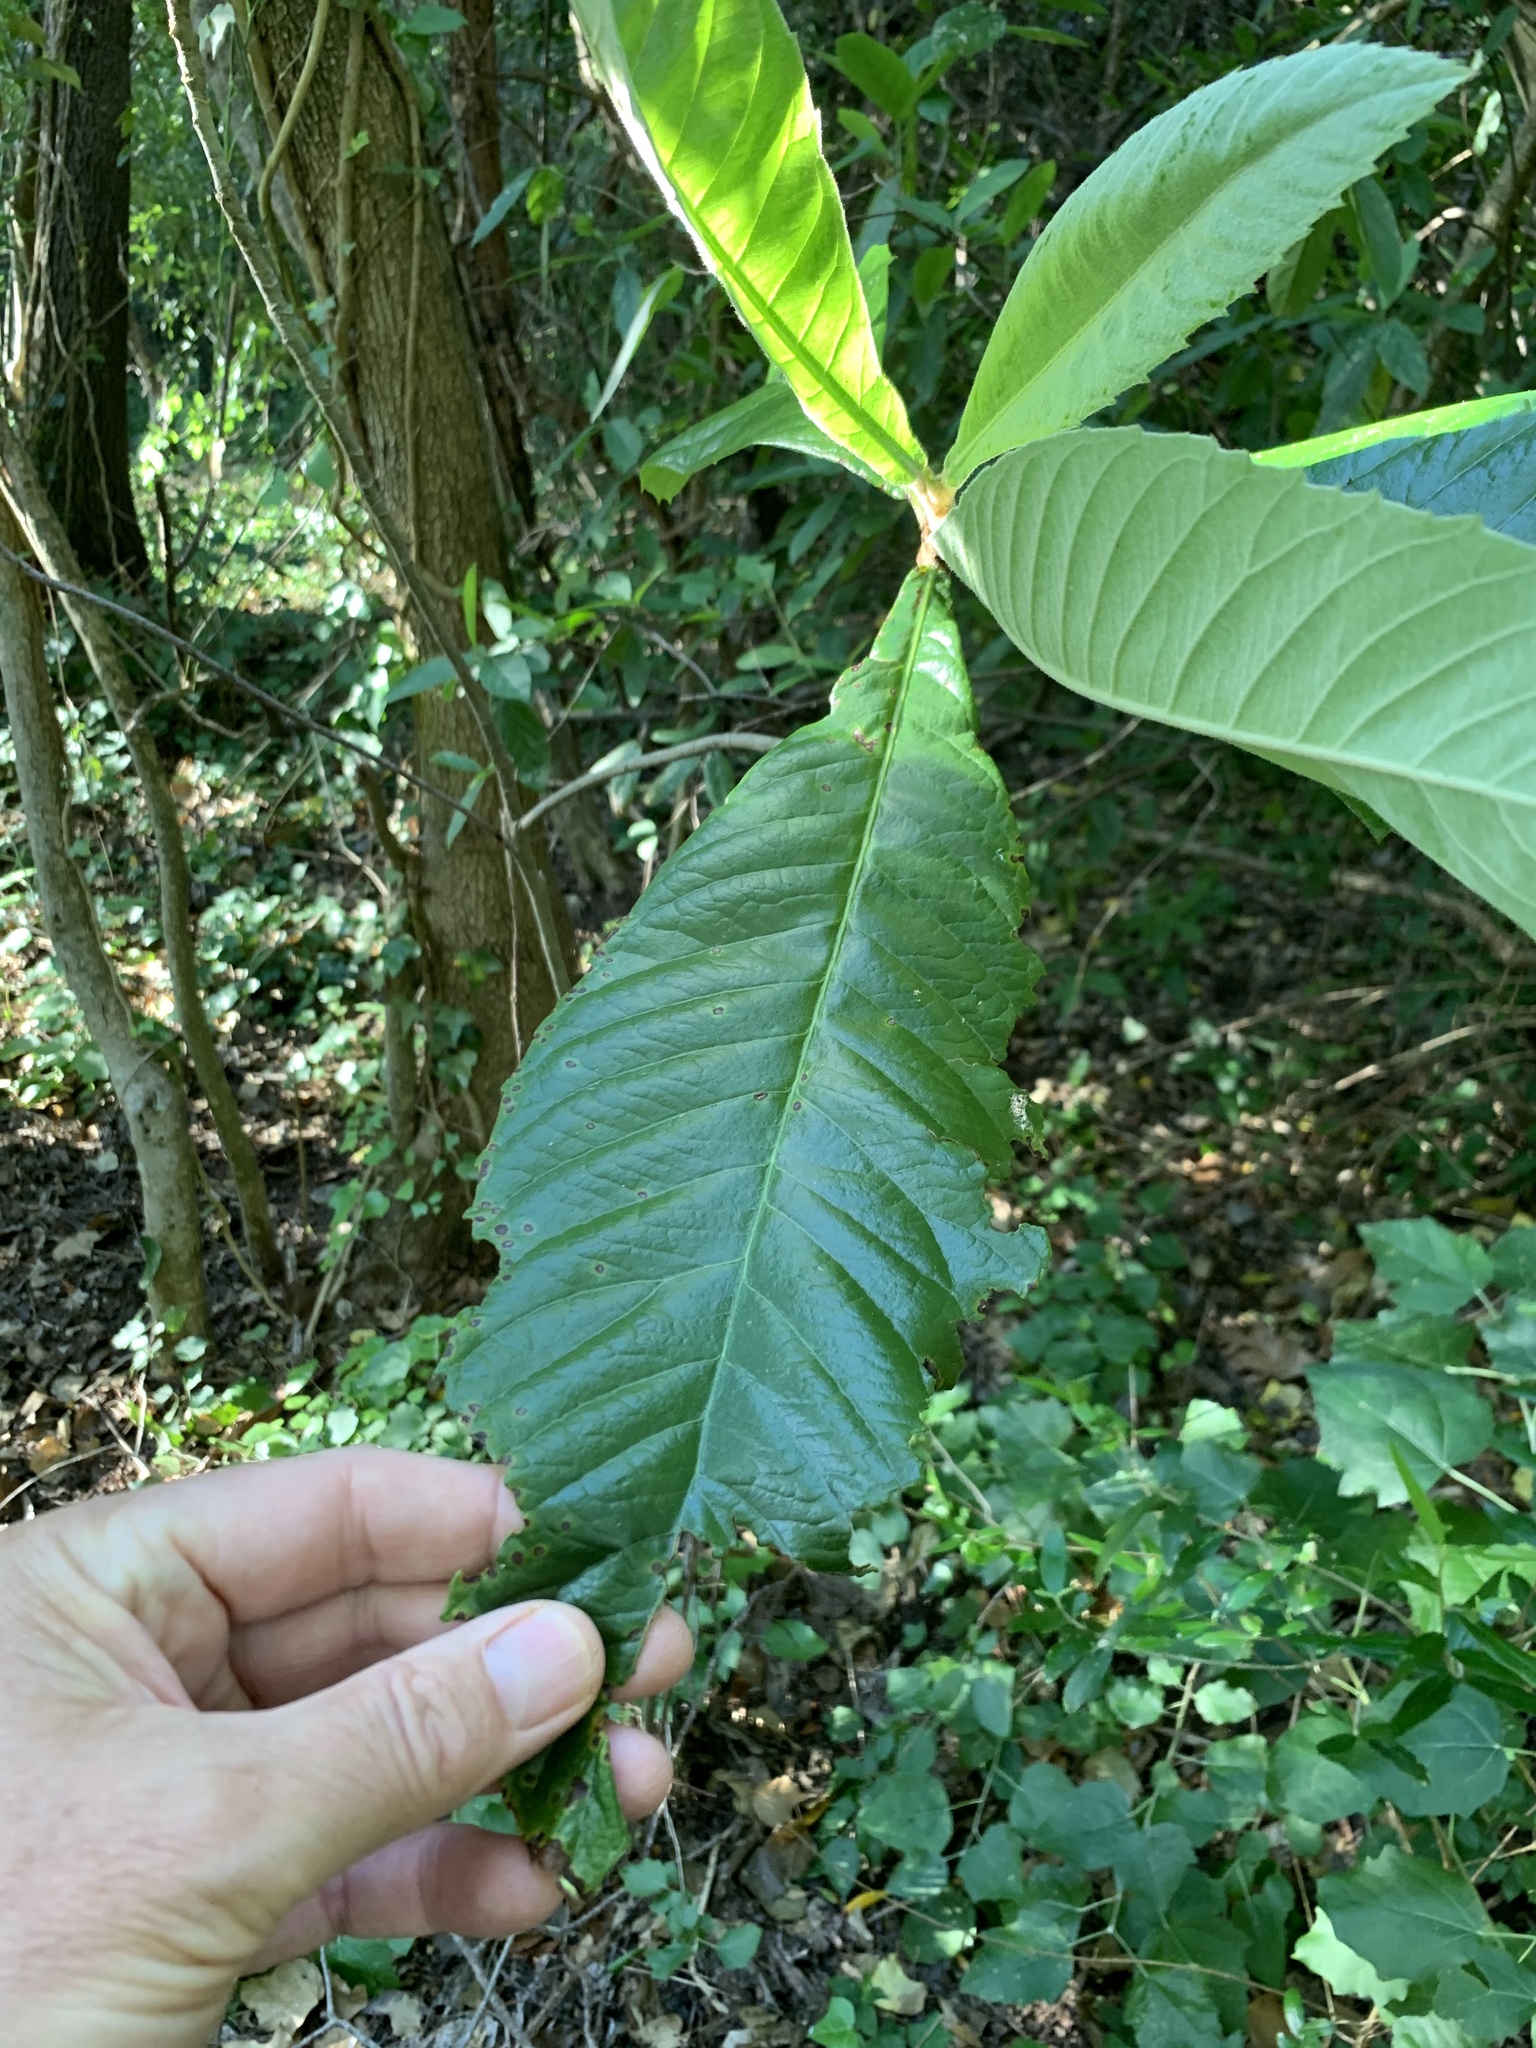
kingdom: Plantae
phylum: Tracheophyta
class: Magnoliopsida
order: Rosales
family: Rosaceae
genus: Rhaphiolepis
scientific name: Rhaphiolepis bibas
